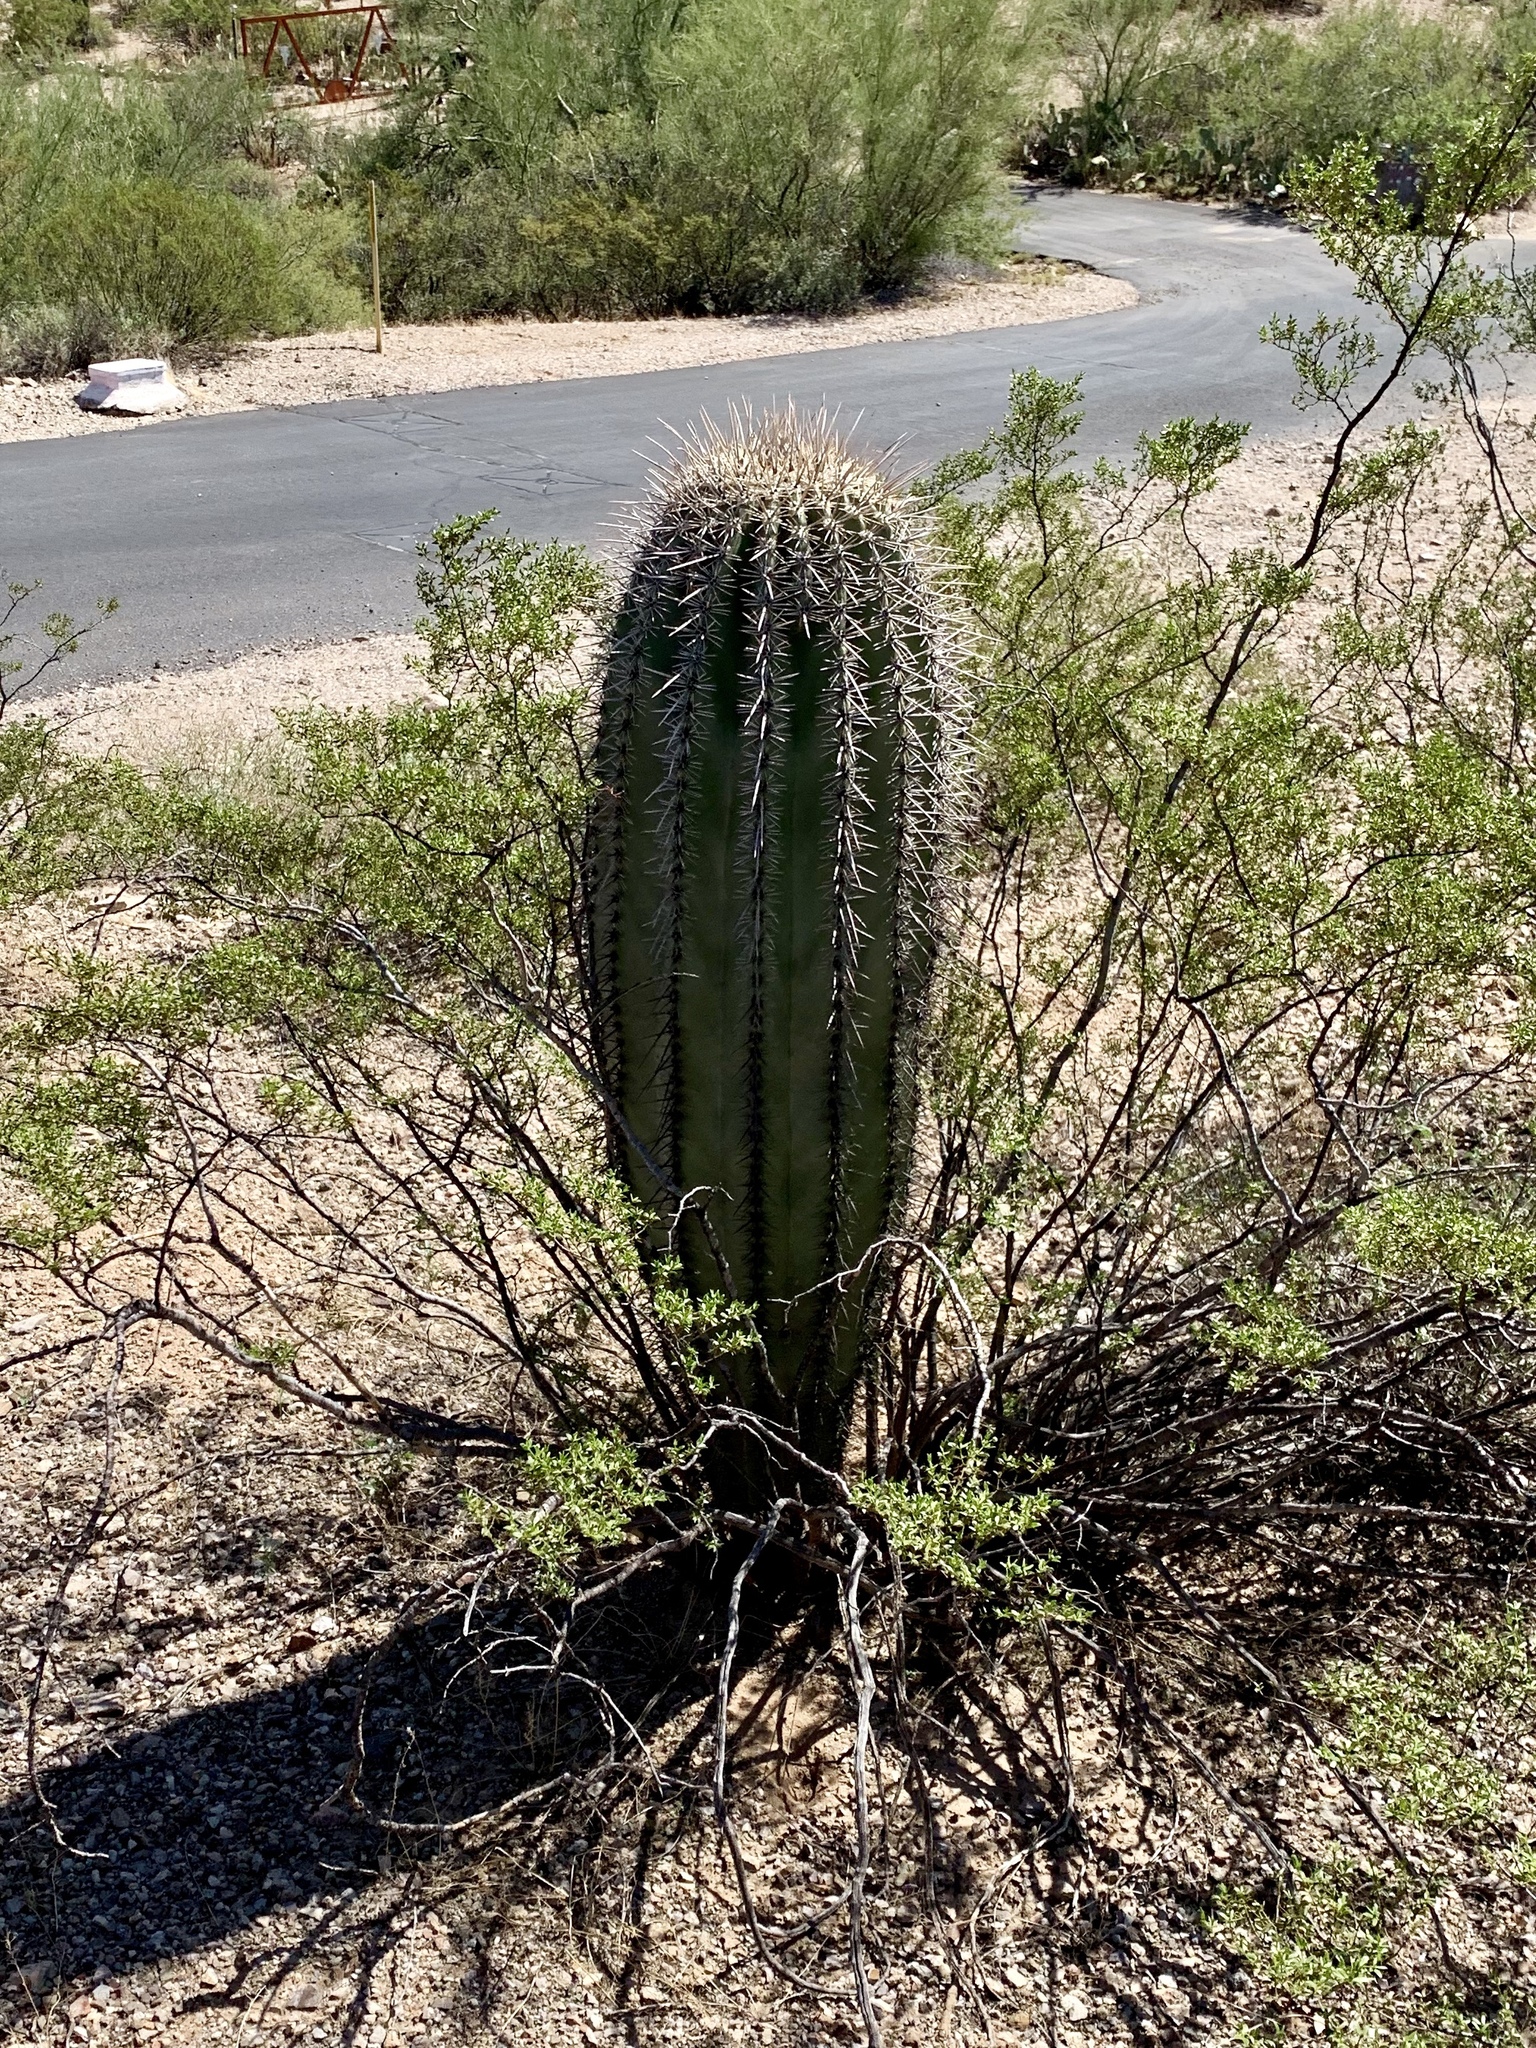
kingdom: Plantae
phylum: Tracheophyta
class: Magnoliopsida
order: Caryophyllales
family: Cactaceae
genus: Carnegiea
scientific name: Carnegiea gigantea
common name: Saguaro
